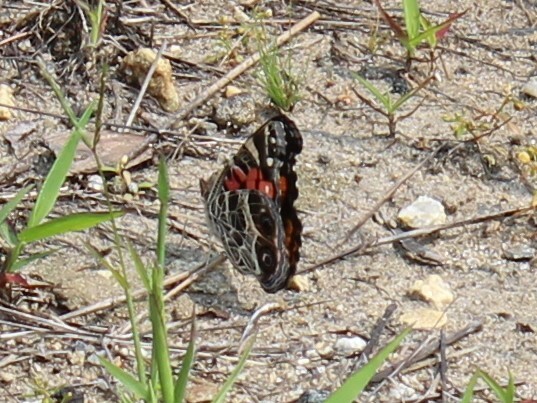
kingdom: Animalia
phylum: Arthropoda
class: Insecta
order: Lepidoptera
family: Nymphalidae
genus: Vanessa
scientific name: Vanessa virginiensis
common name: American lady
